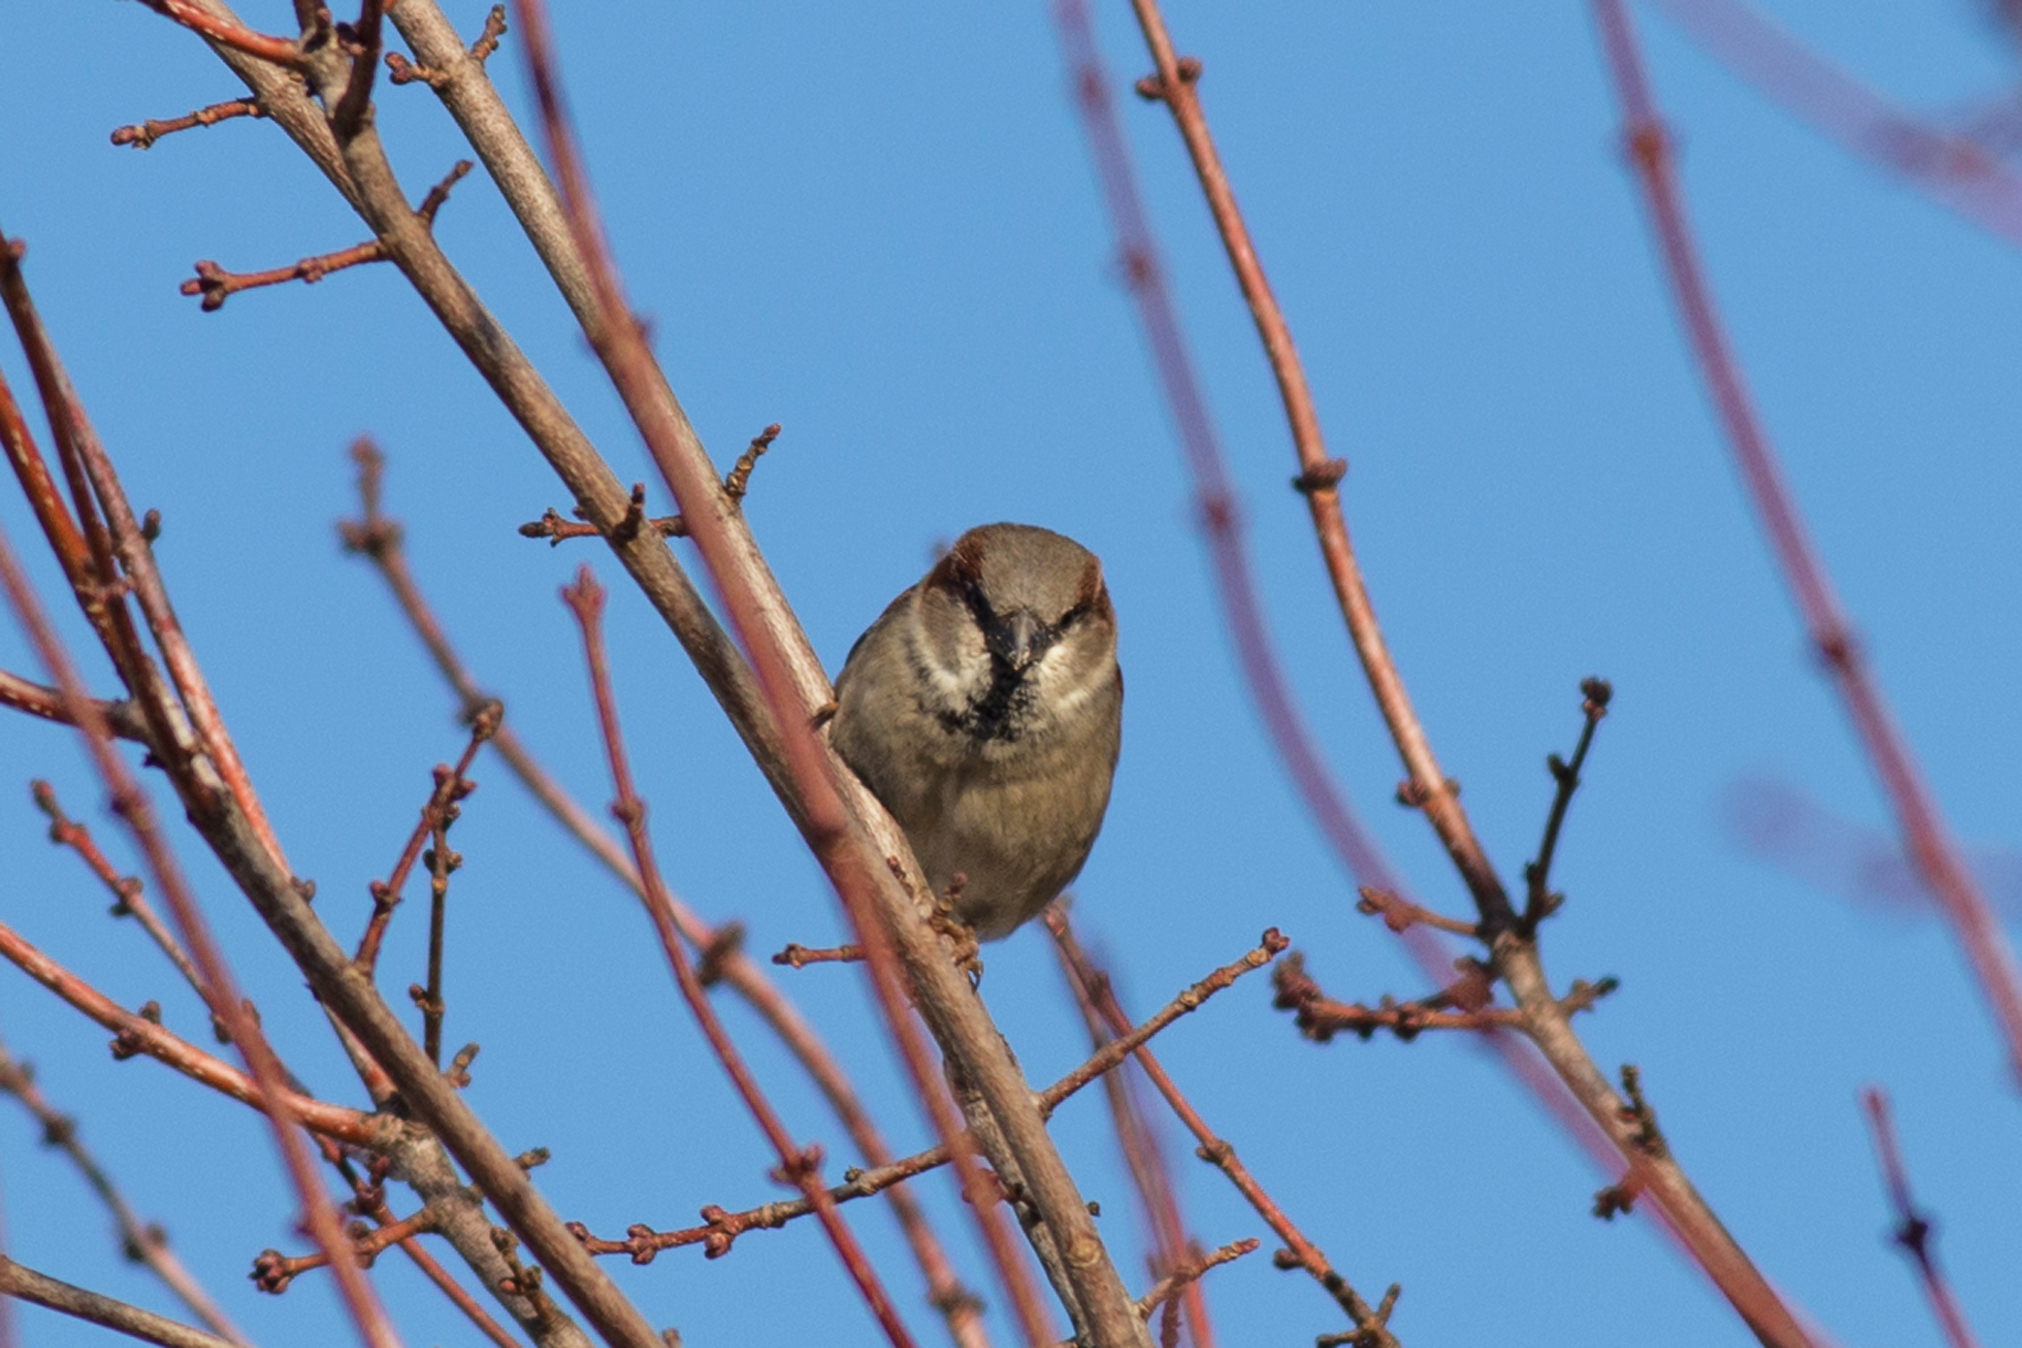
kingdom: Animalia
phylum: Chordata
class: Aves
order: Passeriformes
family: Passeridae
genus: Passer
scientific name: Passer domesticus
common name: House sparrow
